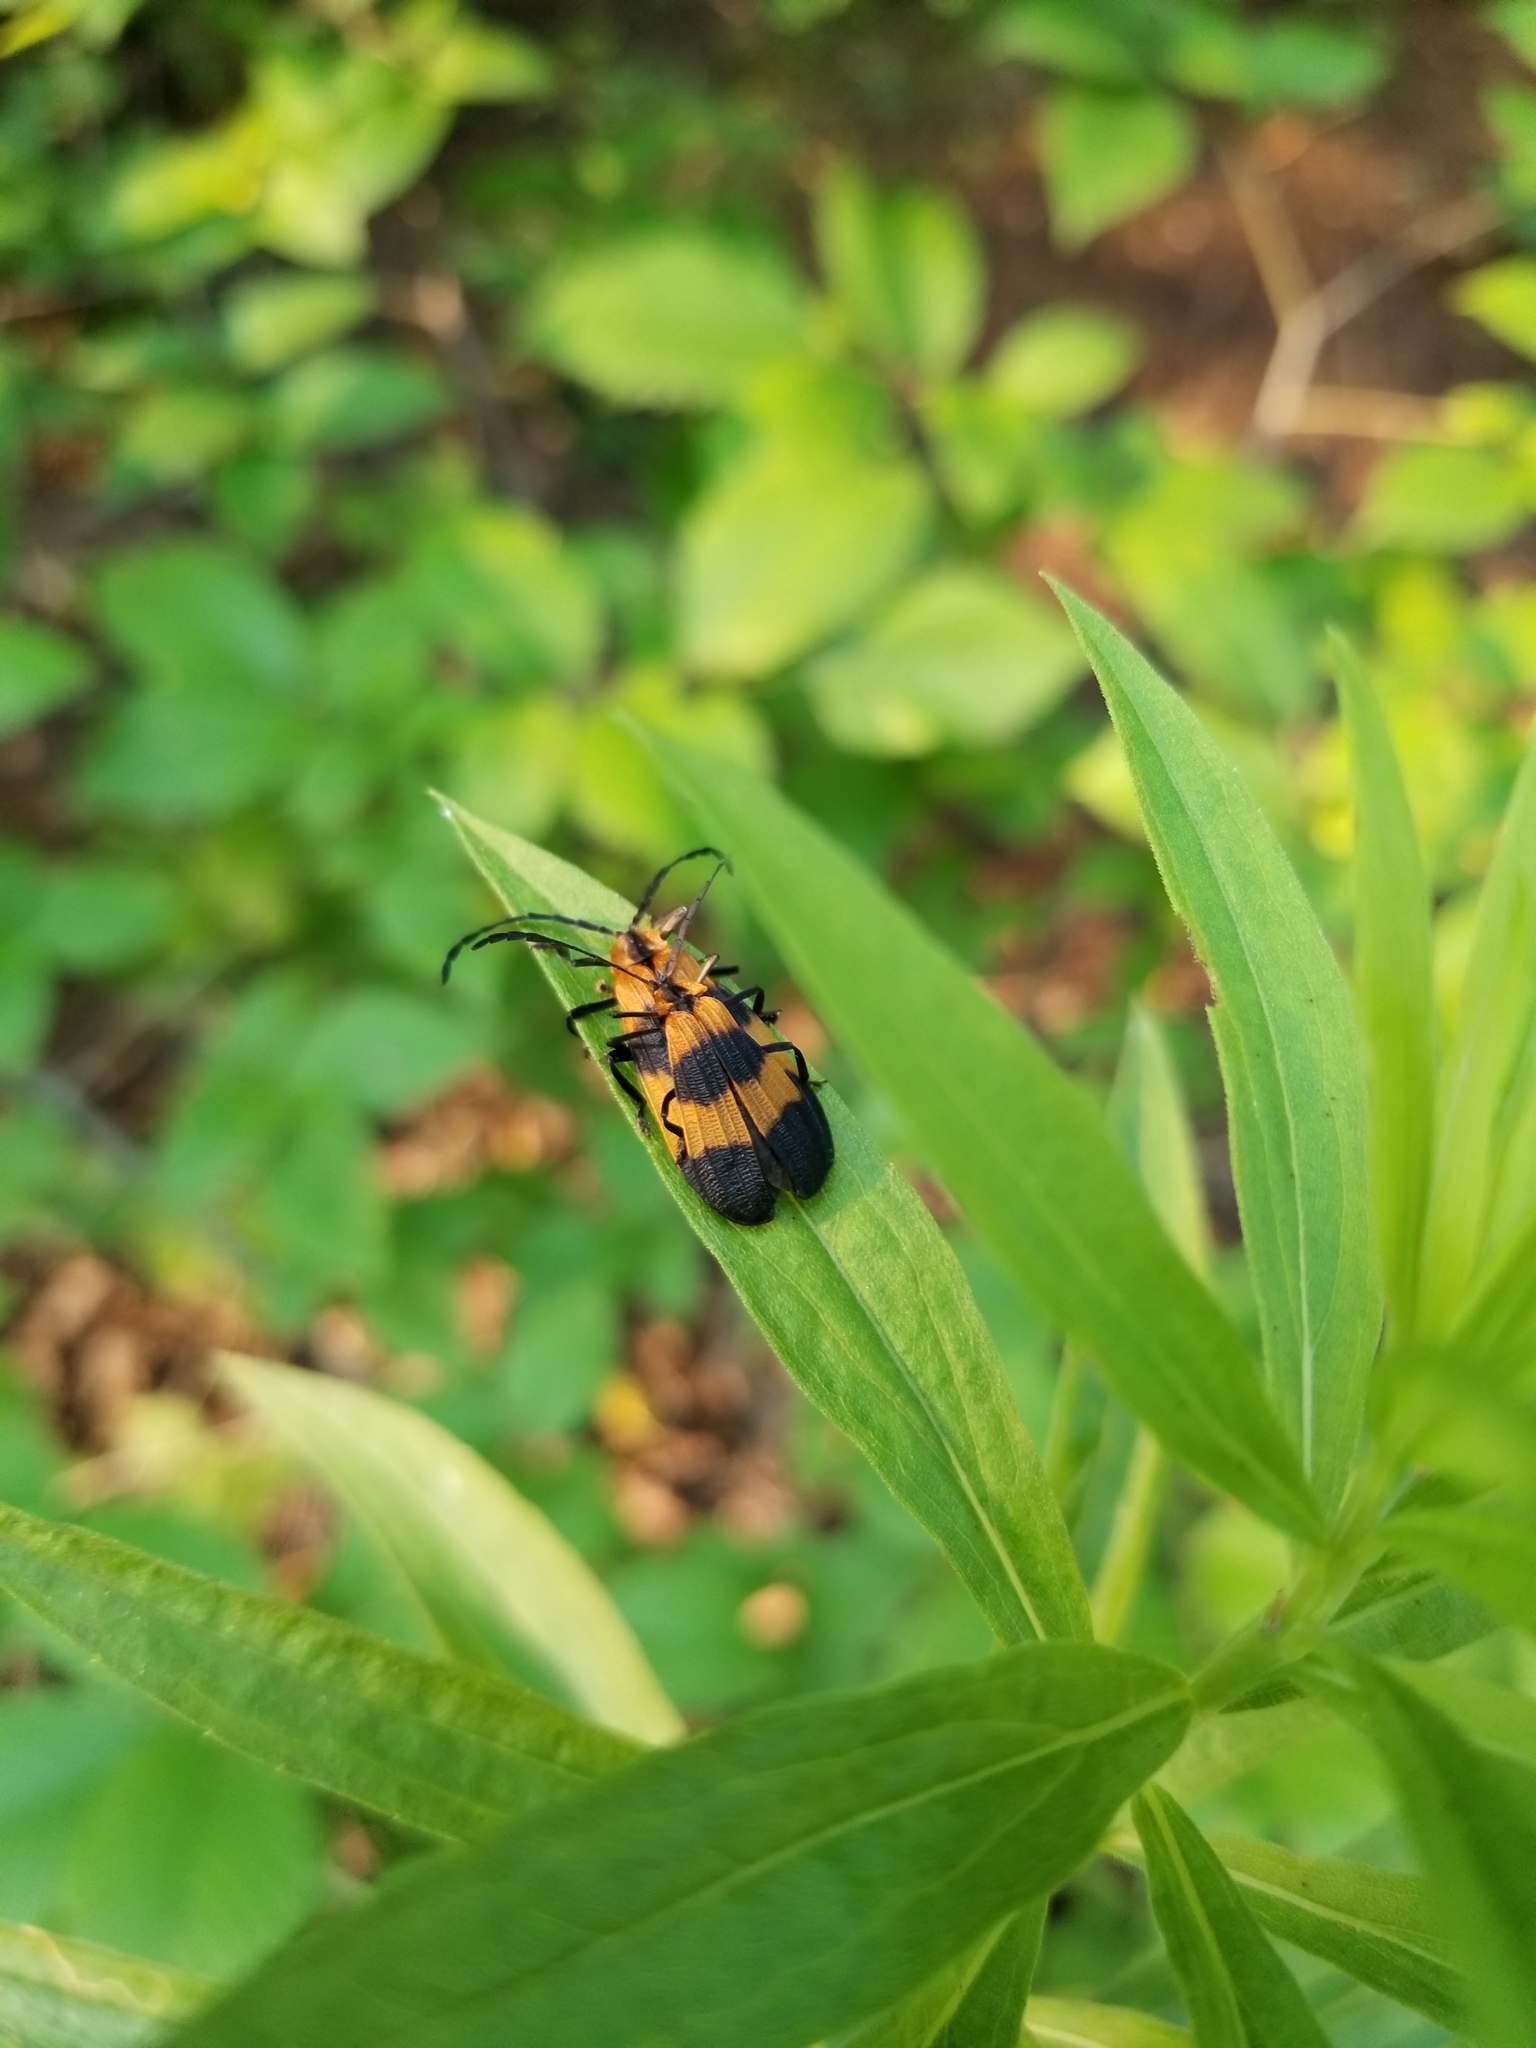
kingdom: Animalia
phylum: Arthropoda
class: Insecta
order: Coleoptera
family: Lycidae
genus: Calopteron
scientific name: Calopteron reticulatum
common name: Banded net-winged beetle
